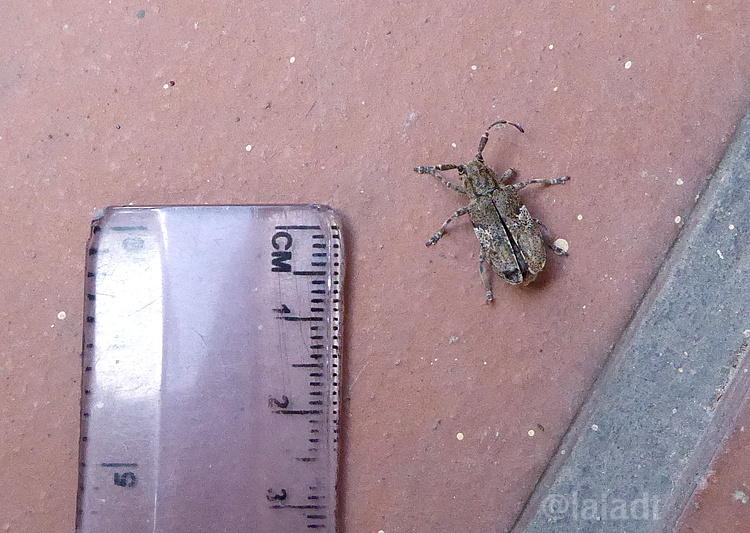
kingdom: Animalia
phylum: Arthropoda
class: Insecta
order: Coleoptera
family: Cerambycidae
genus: Mesosa
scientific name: Mesosa nebulosa
